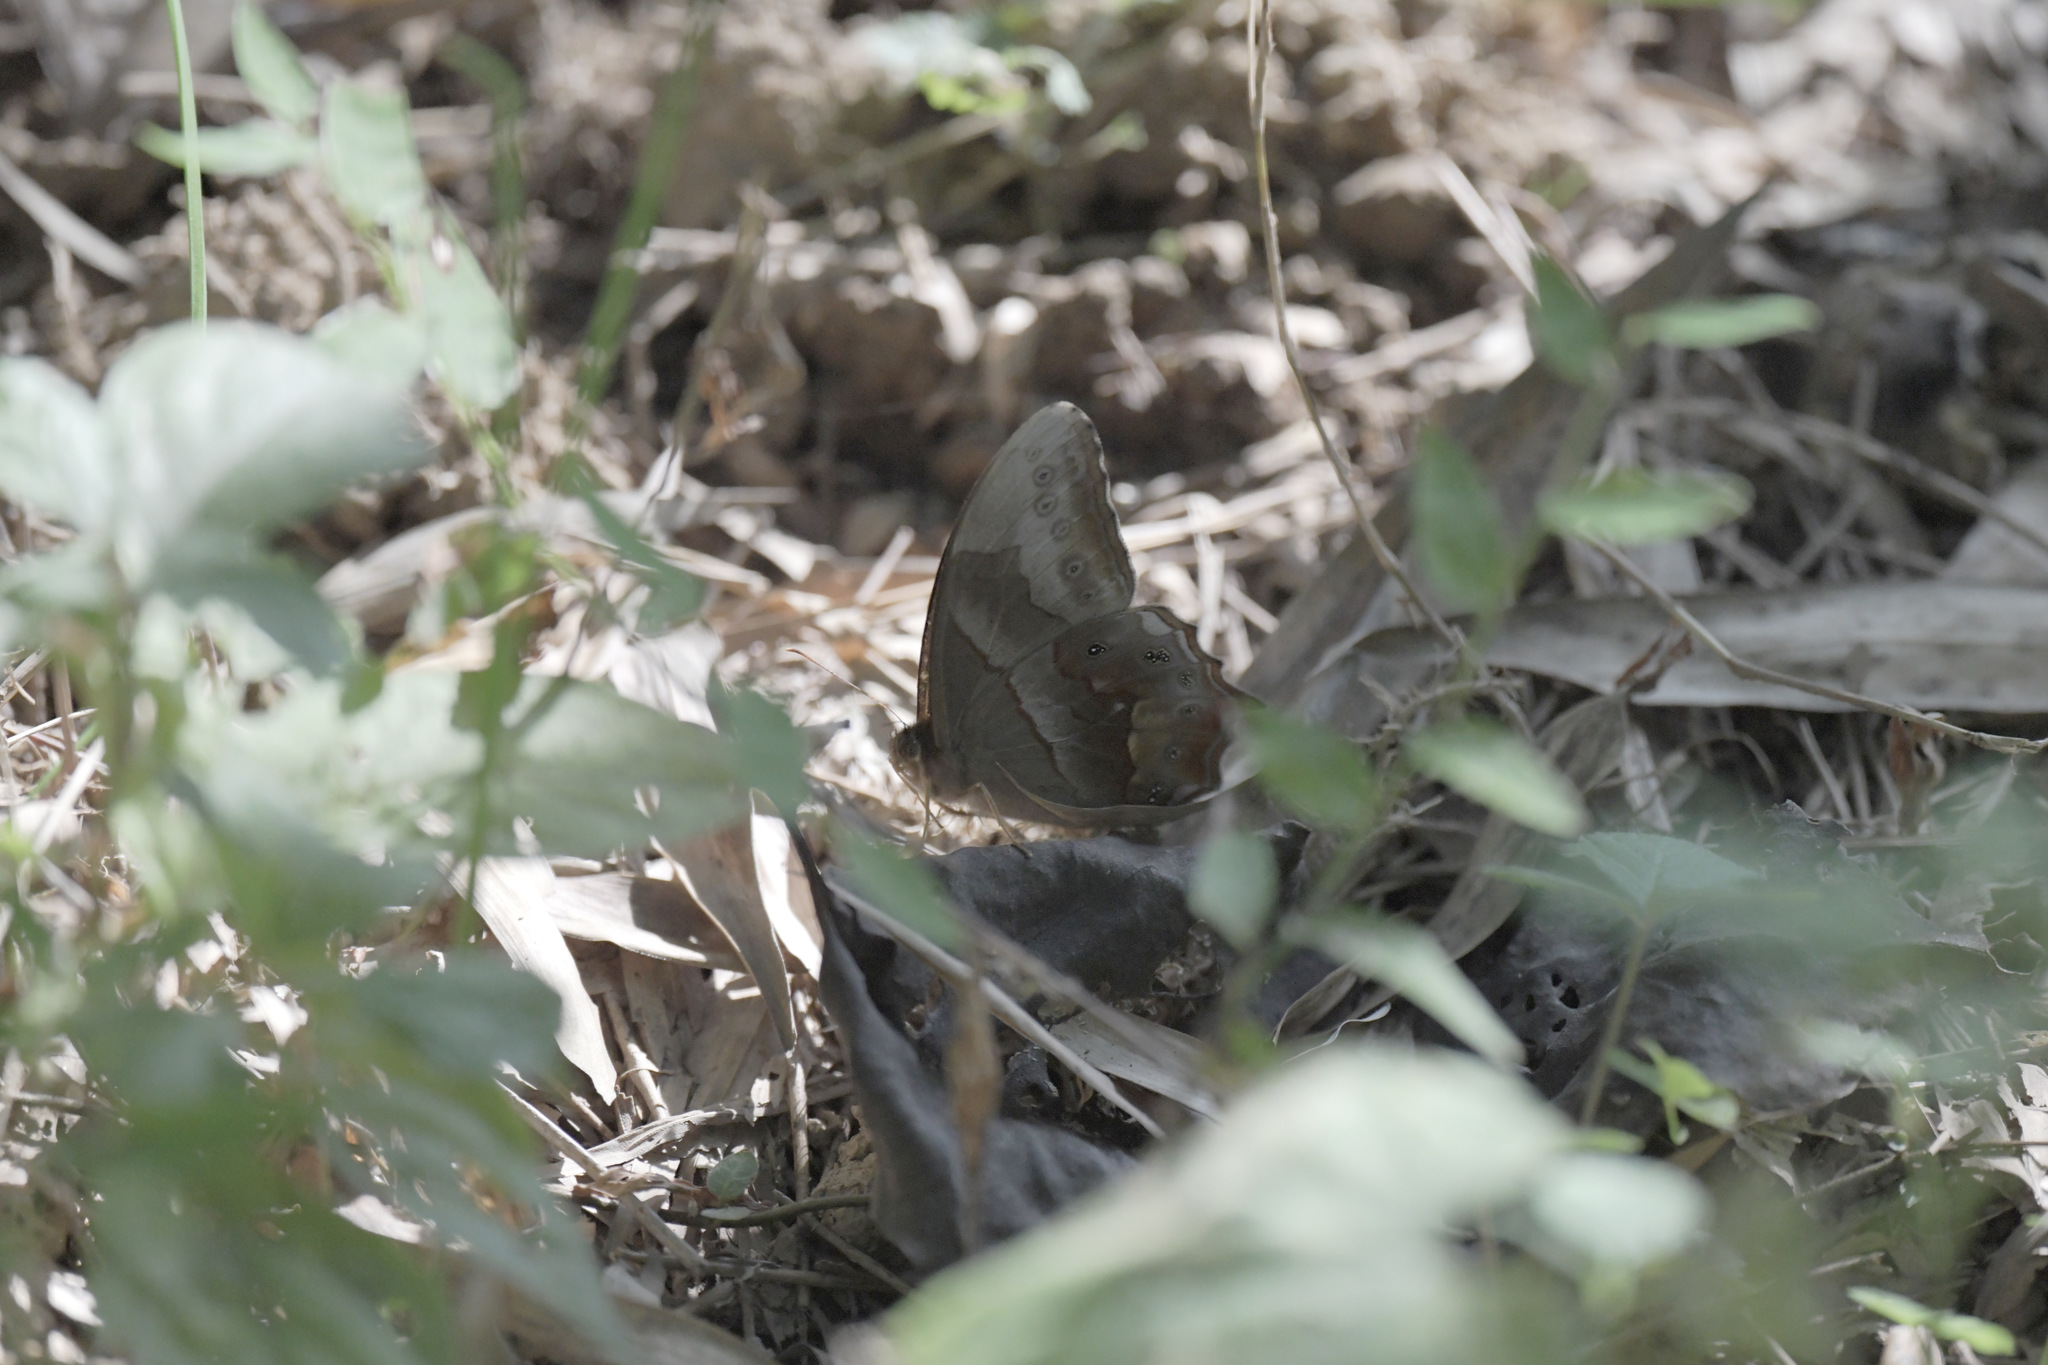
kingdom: Animalia
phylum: Arthropoda
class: Insecta
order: Lepidoptera
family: Nymphalidae
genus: Lethe
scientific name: Lethe chandica
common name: Angled red forester
